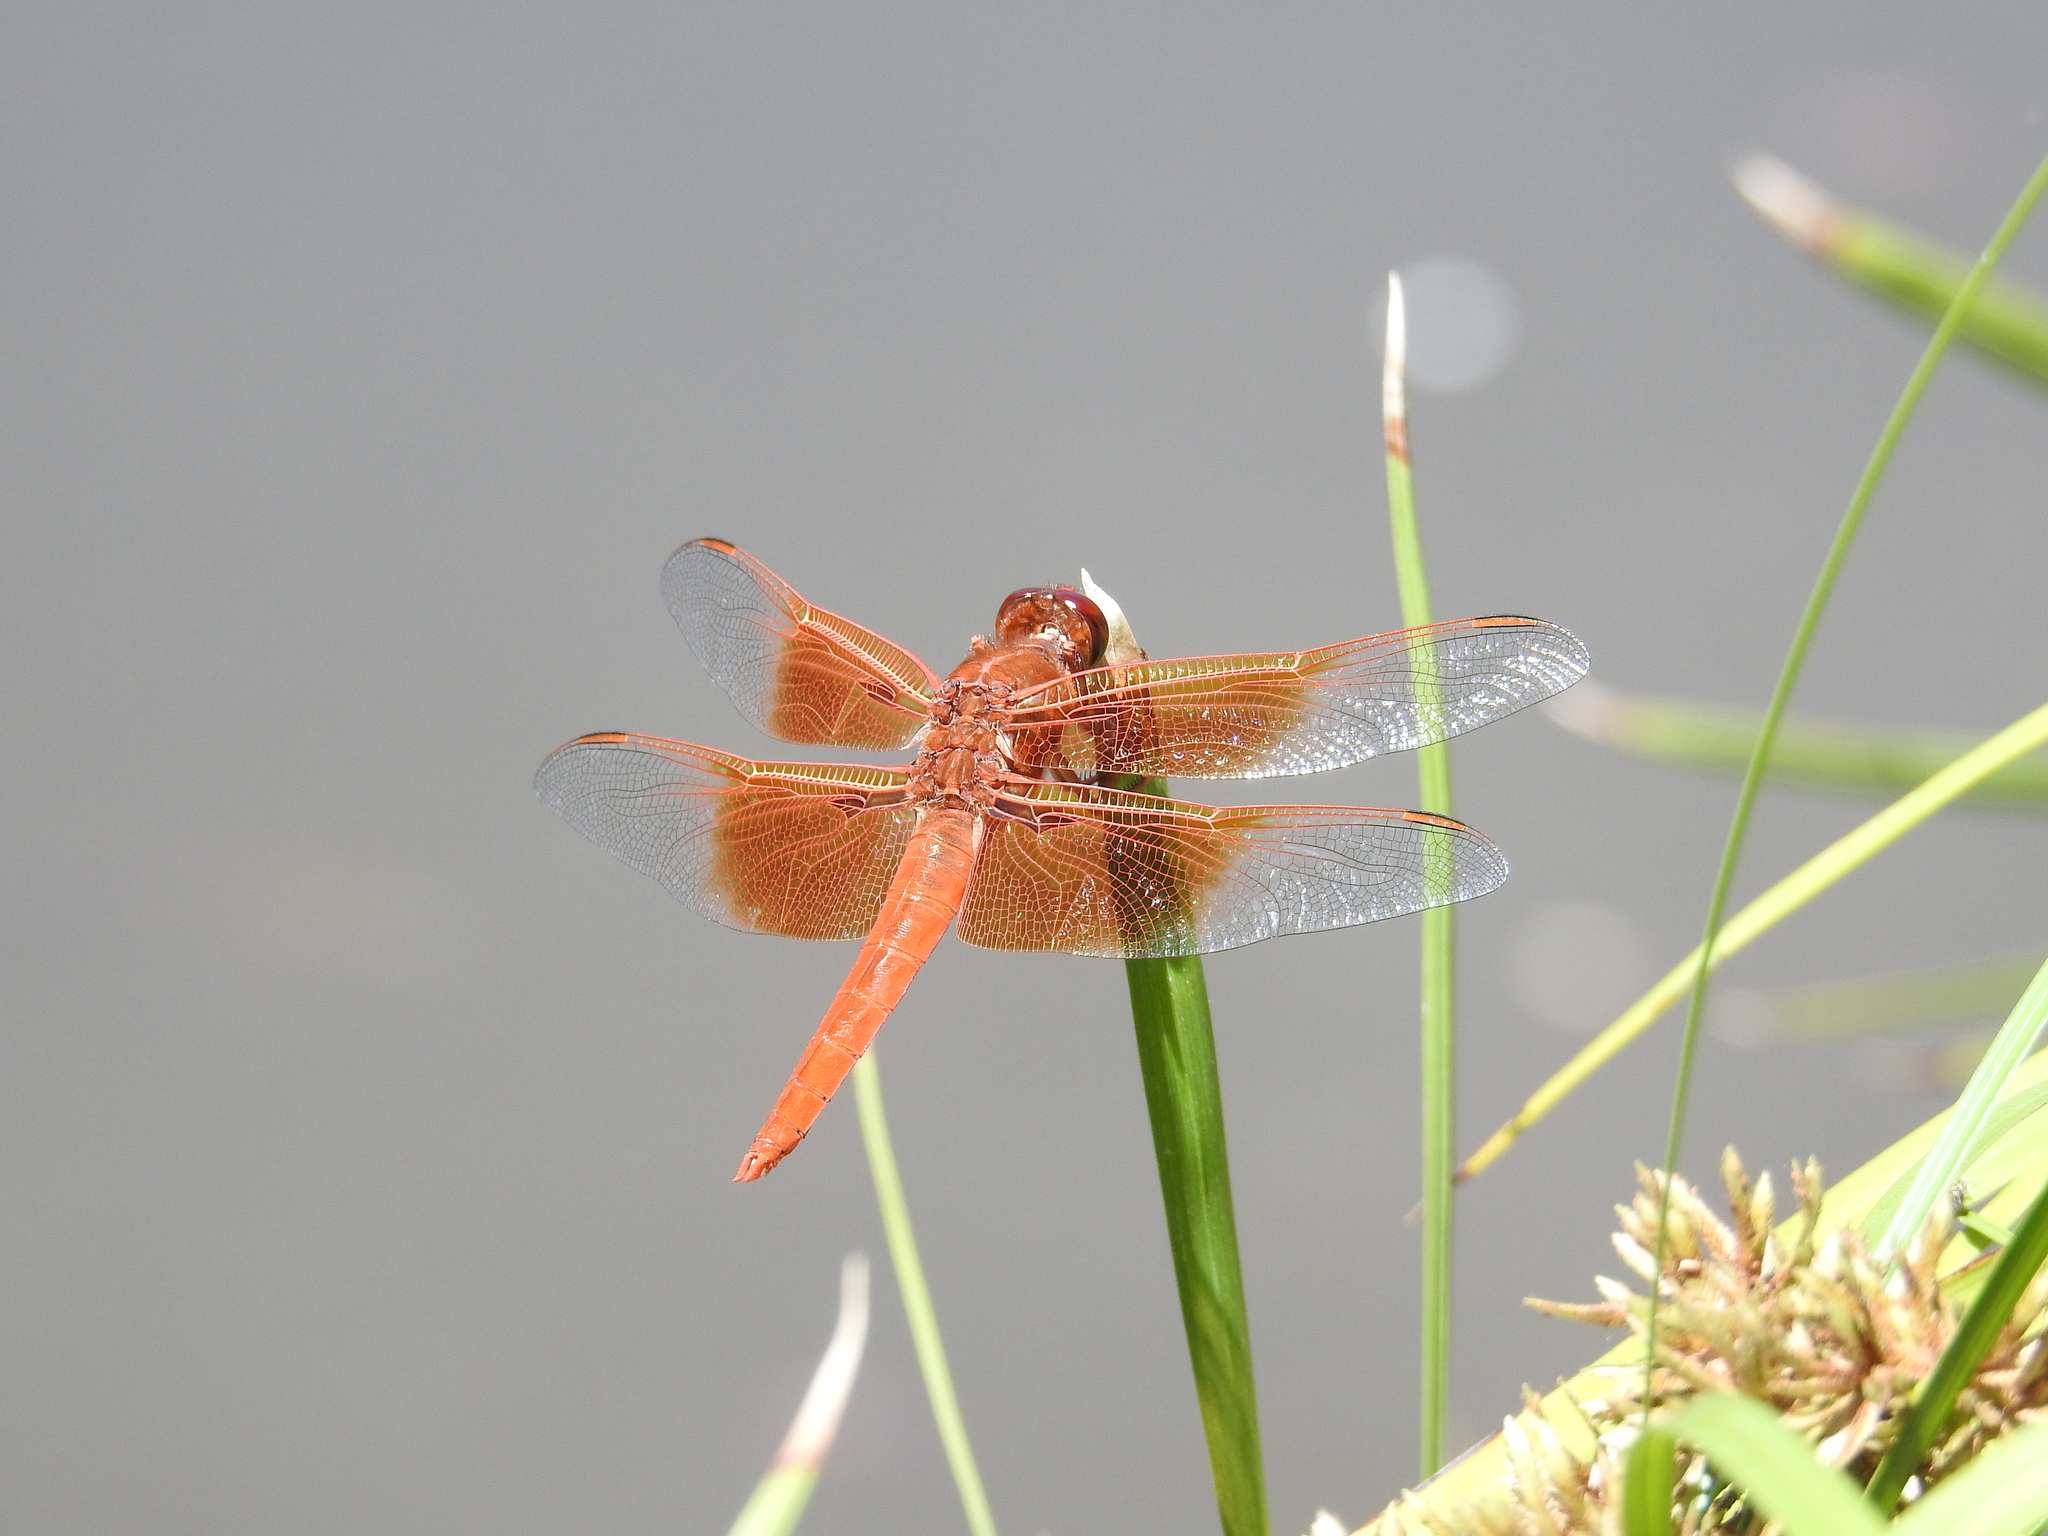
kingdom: Animalia
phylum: Arthropoda
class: Insecta
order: Odonata
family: Libellulidae
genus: Libellula
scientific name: Libellula saturata
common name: Flame skimmer
